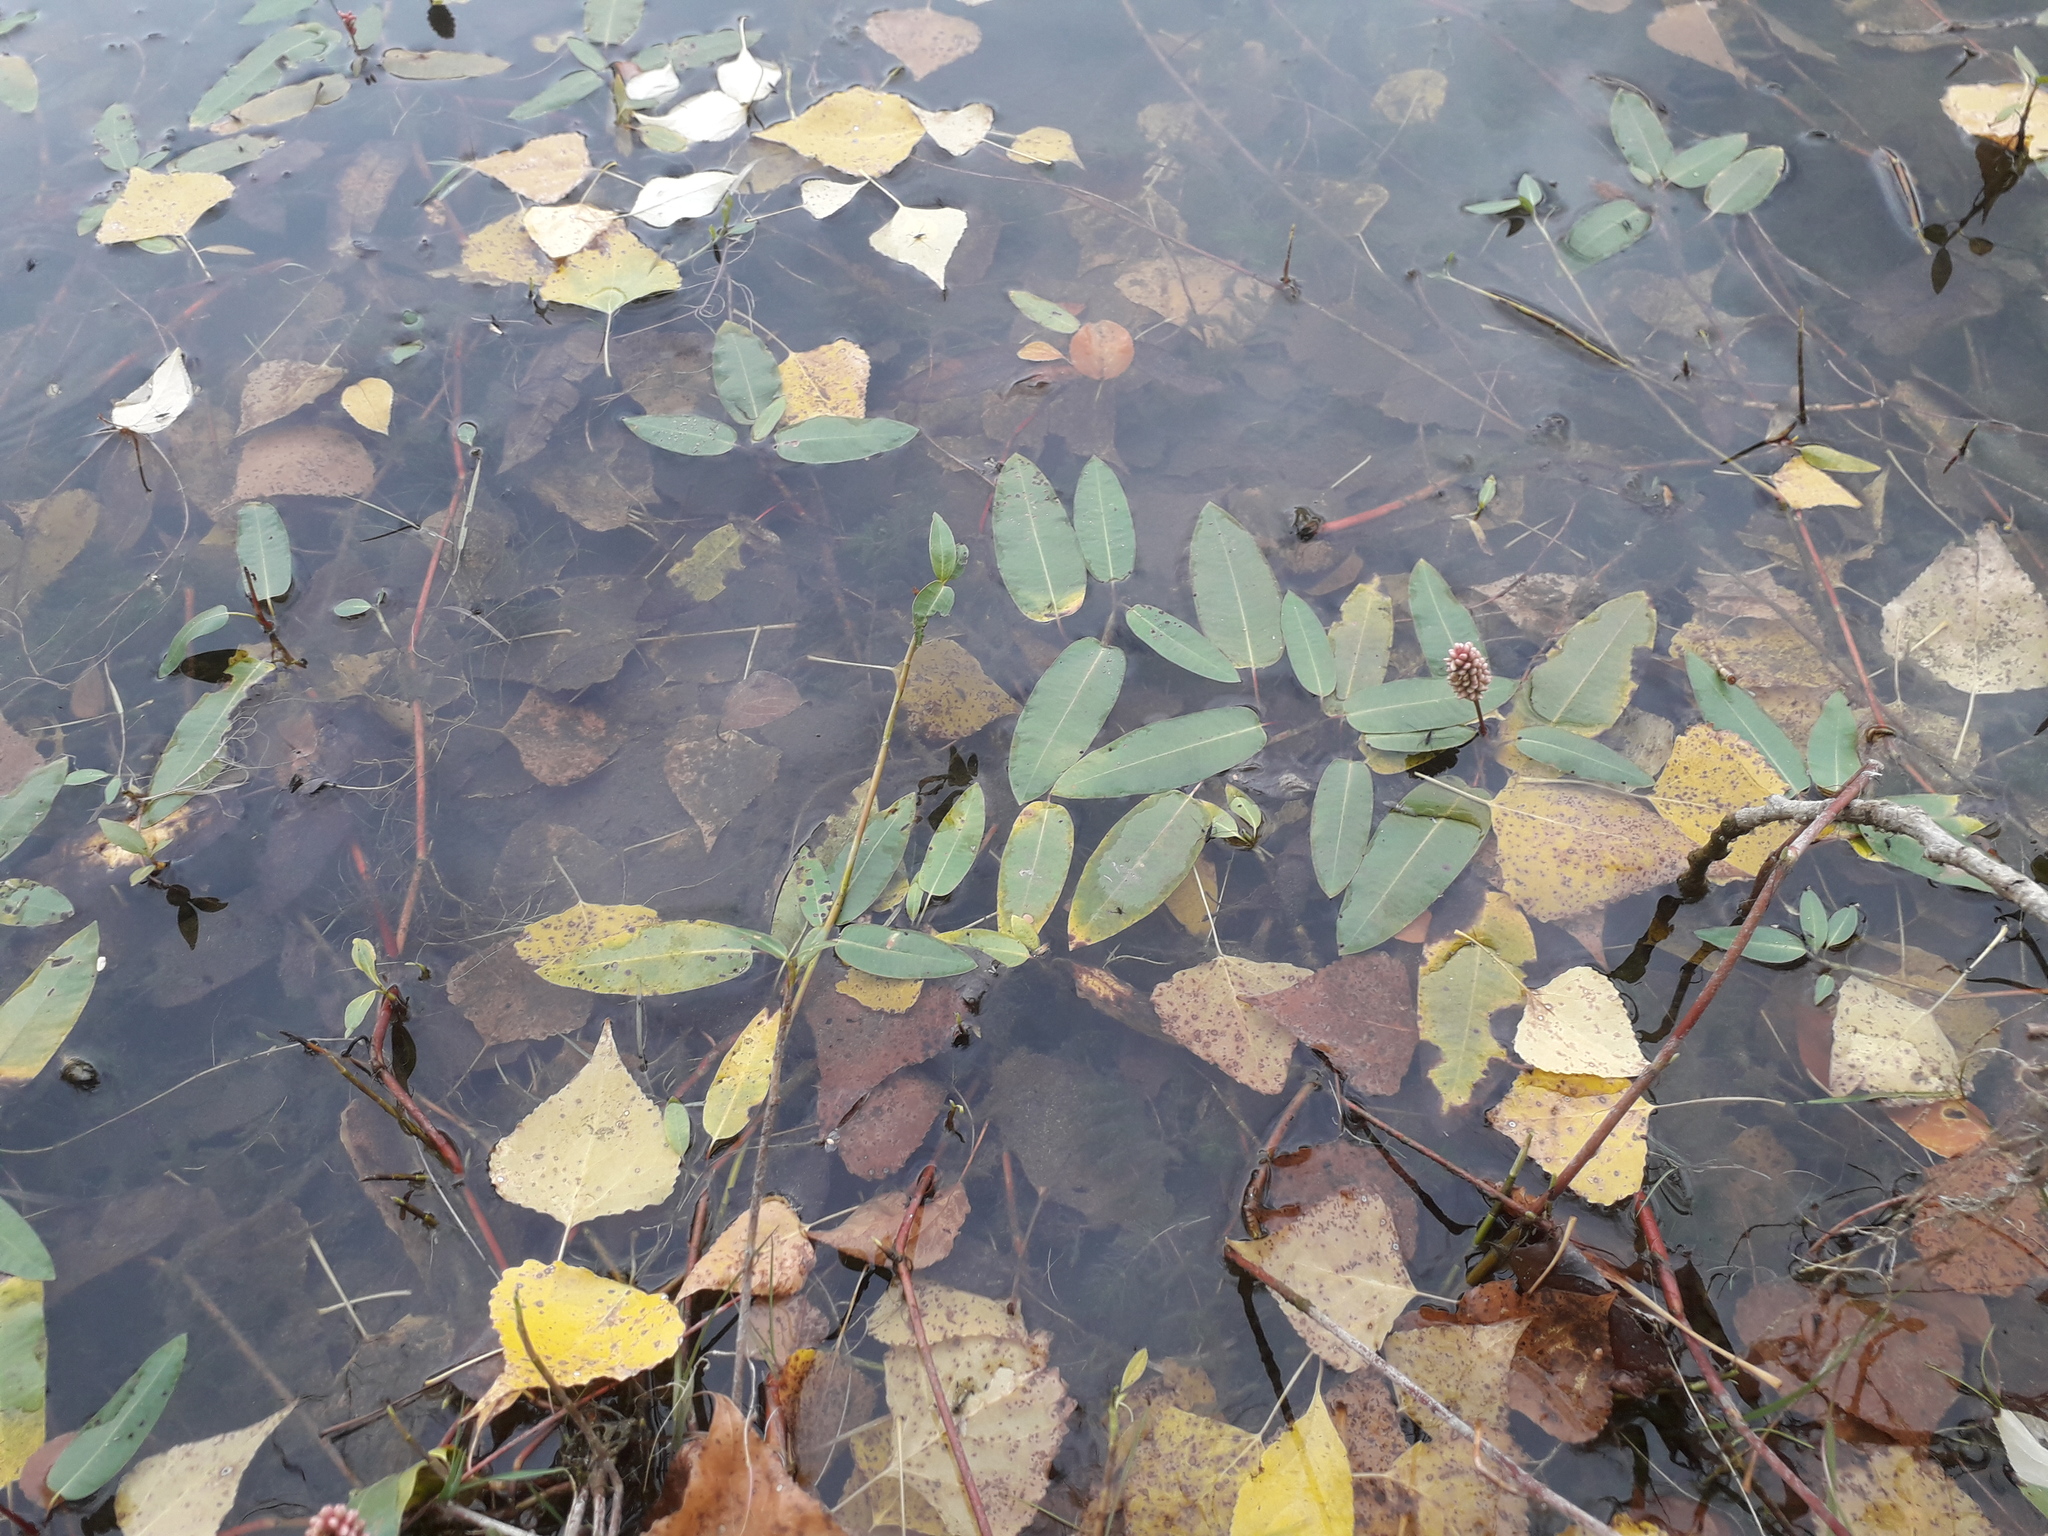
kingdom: Plantae
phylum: Tracheophyta
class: Magnoliopsida
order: Caryophyllales
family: Polygonaceae
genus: Persicaria
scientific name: Persicaria amphibia
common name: Amphibious bistort
